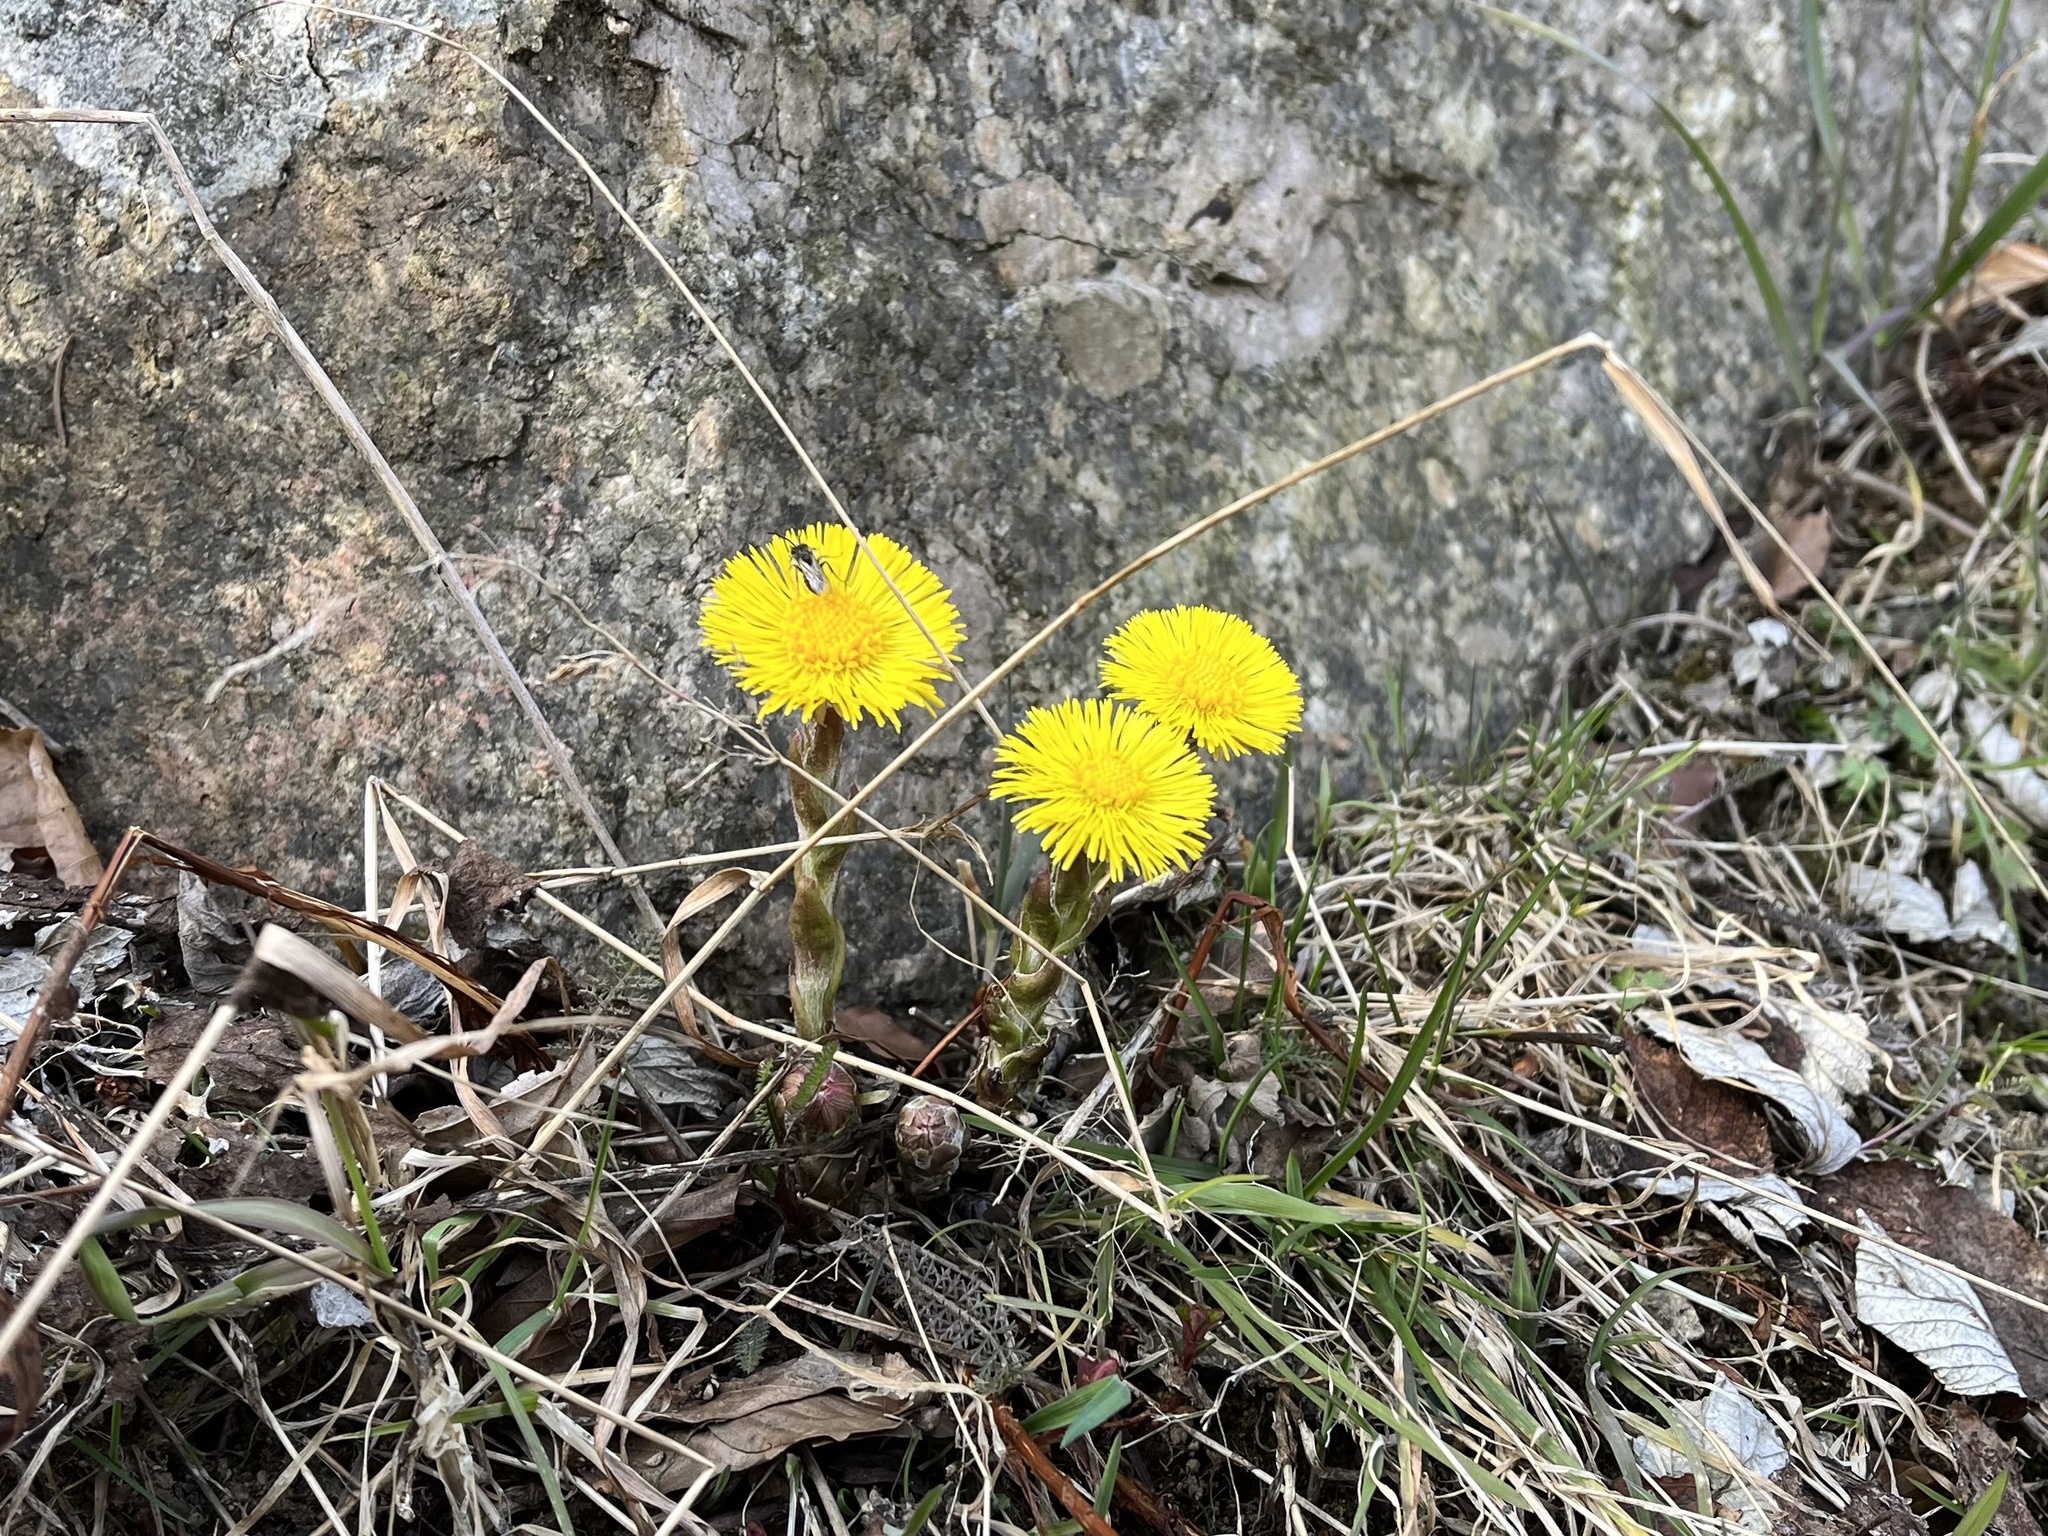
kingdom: Plantae
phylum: Tracheophyta
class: Magnoliopsida
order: Asterales
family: Asteraceae
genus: Tussilago
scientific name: Tussilago farfara
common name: Coltsfoot
